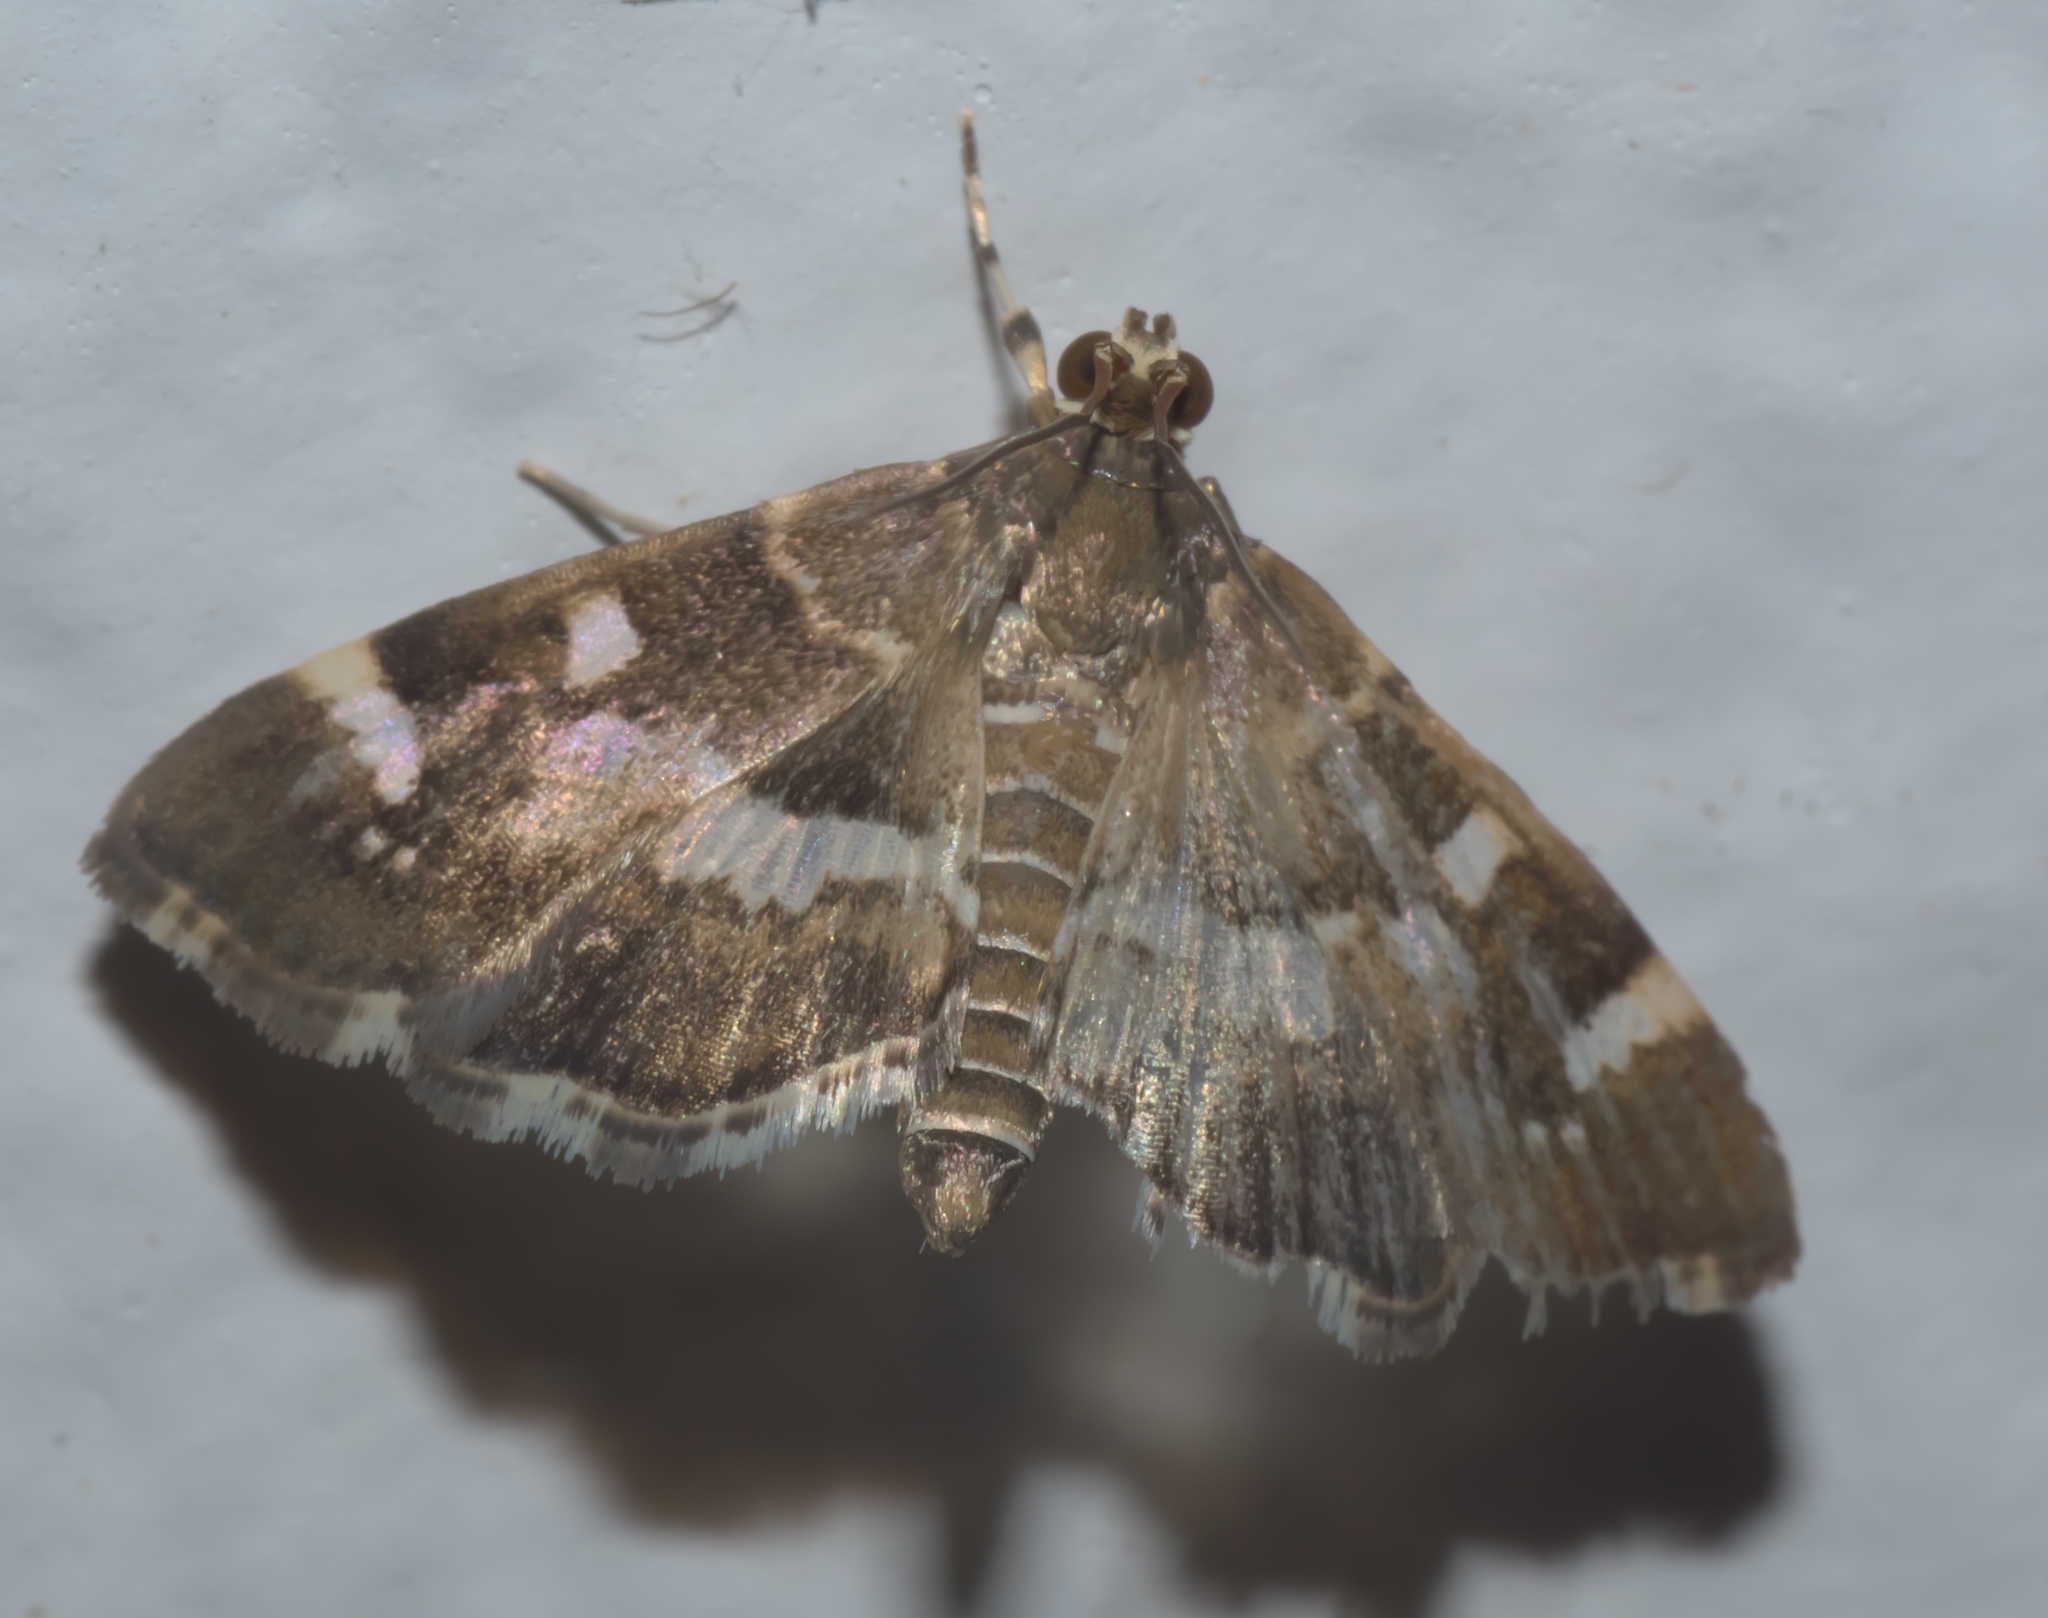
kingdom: Animalia
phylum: Arthropoda
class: Insecta
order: Lepidoptera
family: Crambidae
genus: Hymenia
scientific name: Hymenia perspectalis
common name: Spotted beet webworm
